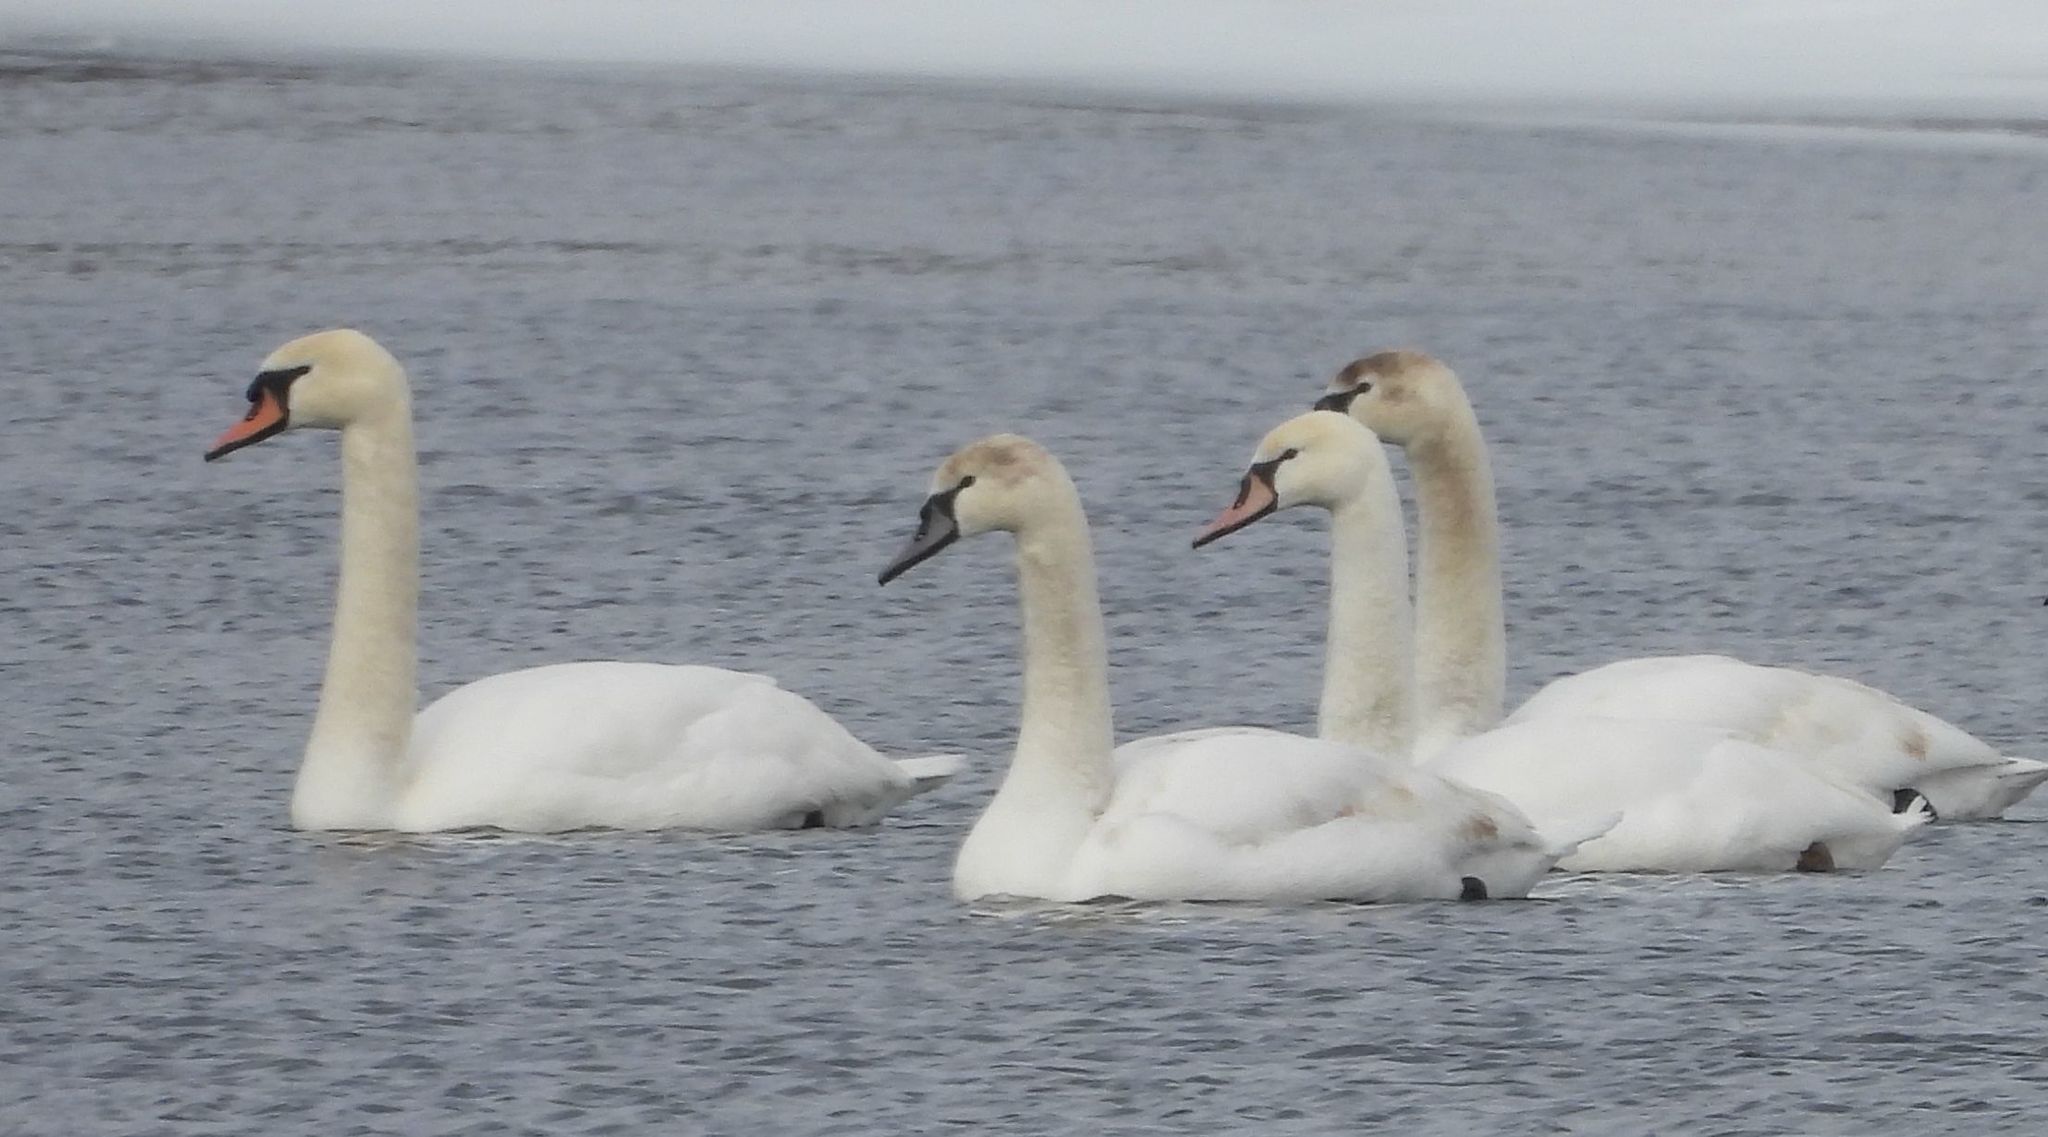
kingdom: Animalia
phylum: Chordata
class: Aves
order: Anseriformes
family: Anatidae
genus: Cygnus
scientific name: Cygnus olor
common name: Mute swan
